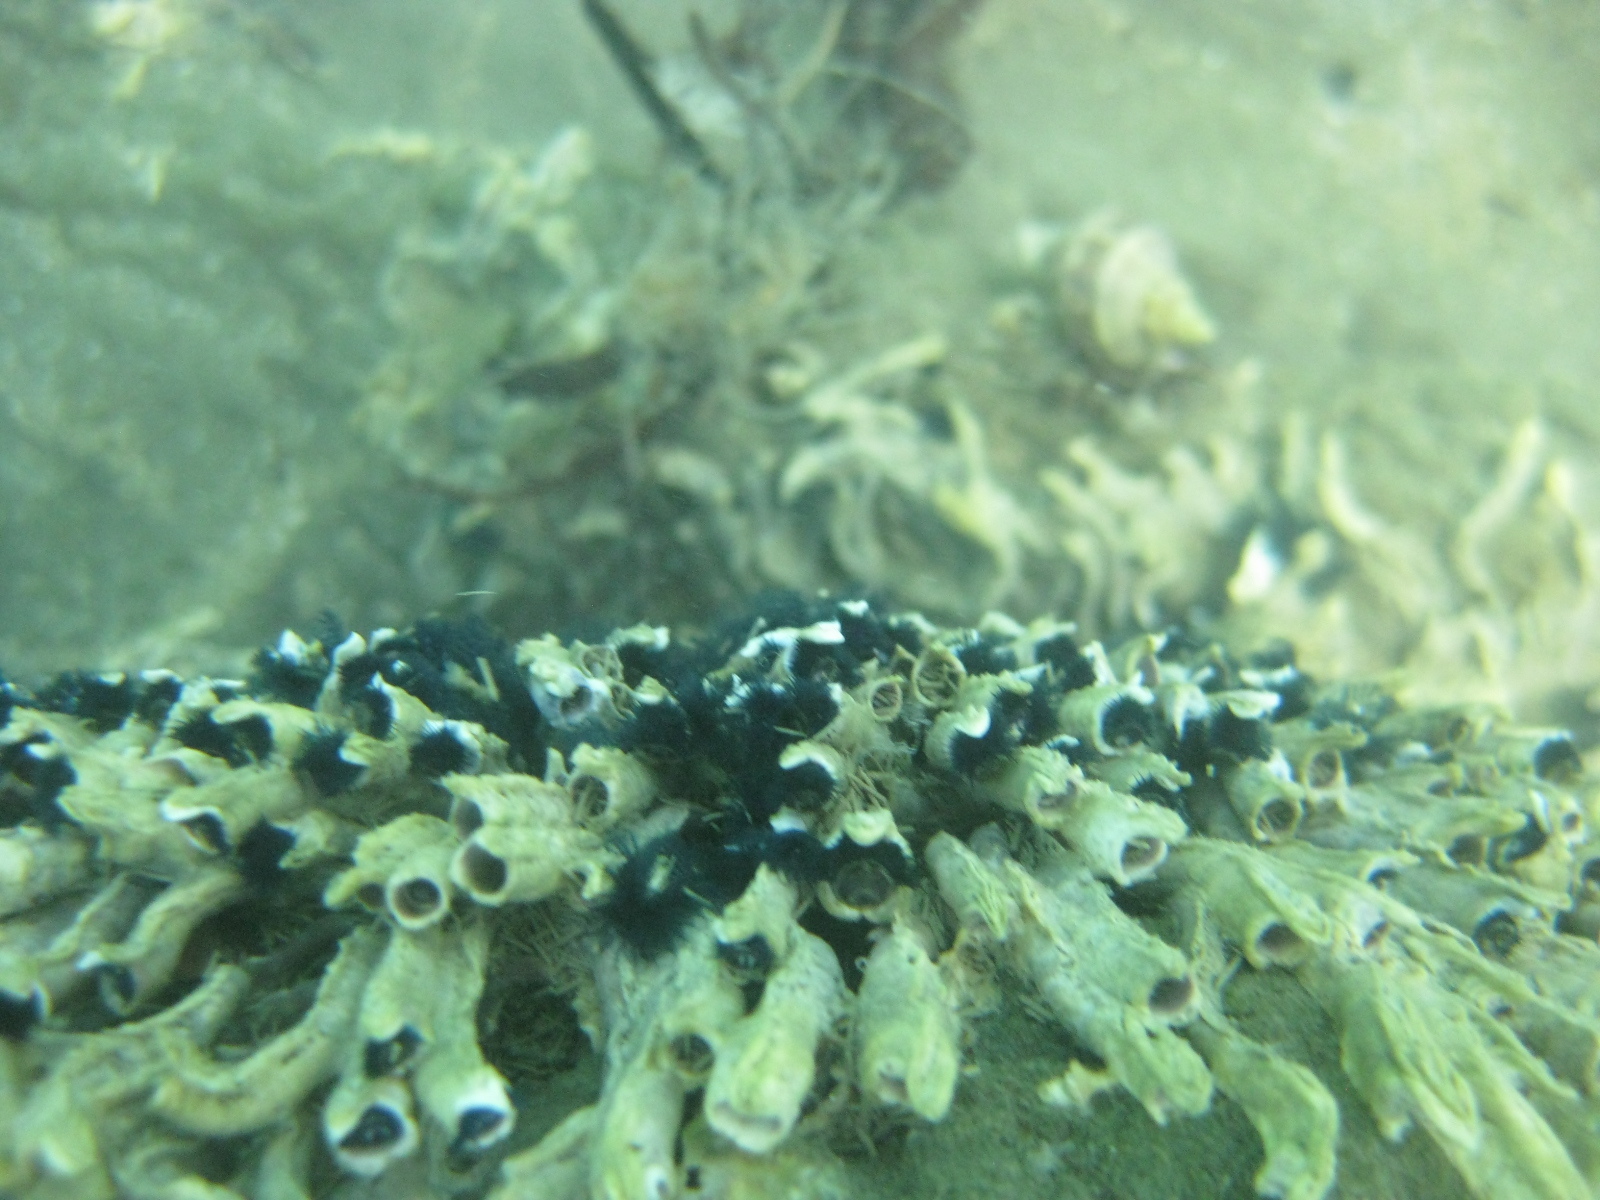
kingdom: Animalia
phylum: Annelida
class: Polychaeta
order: Sabellida
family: Serpulidae
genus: Spirobranchus
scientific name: Spirobranchus cariniferus
